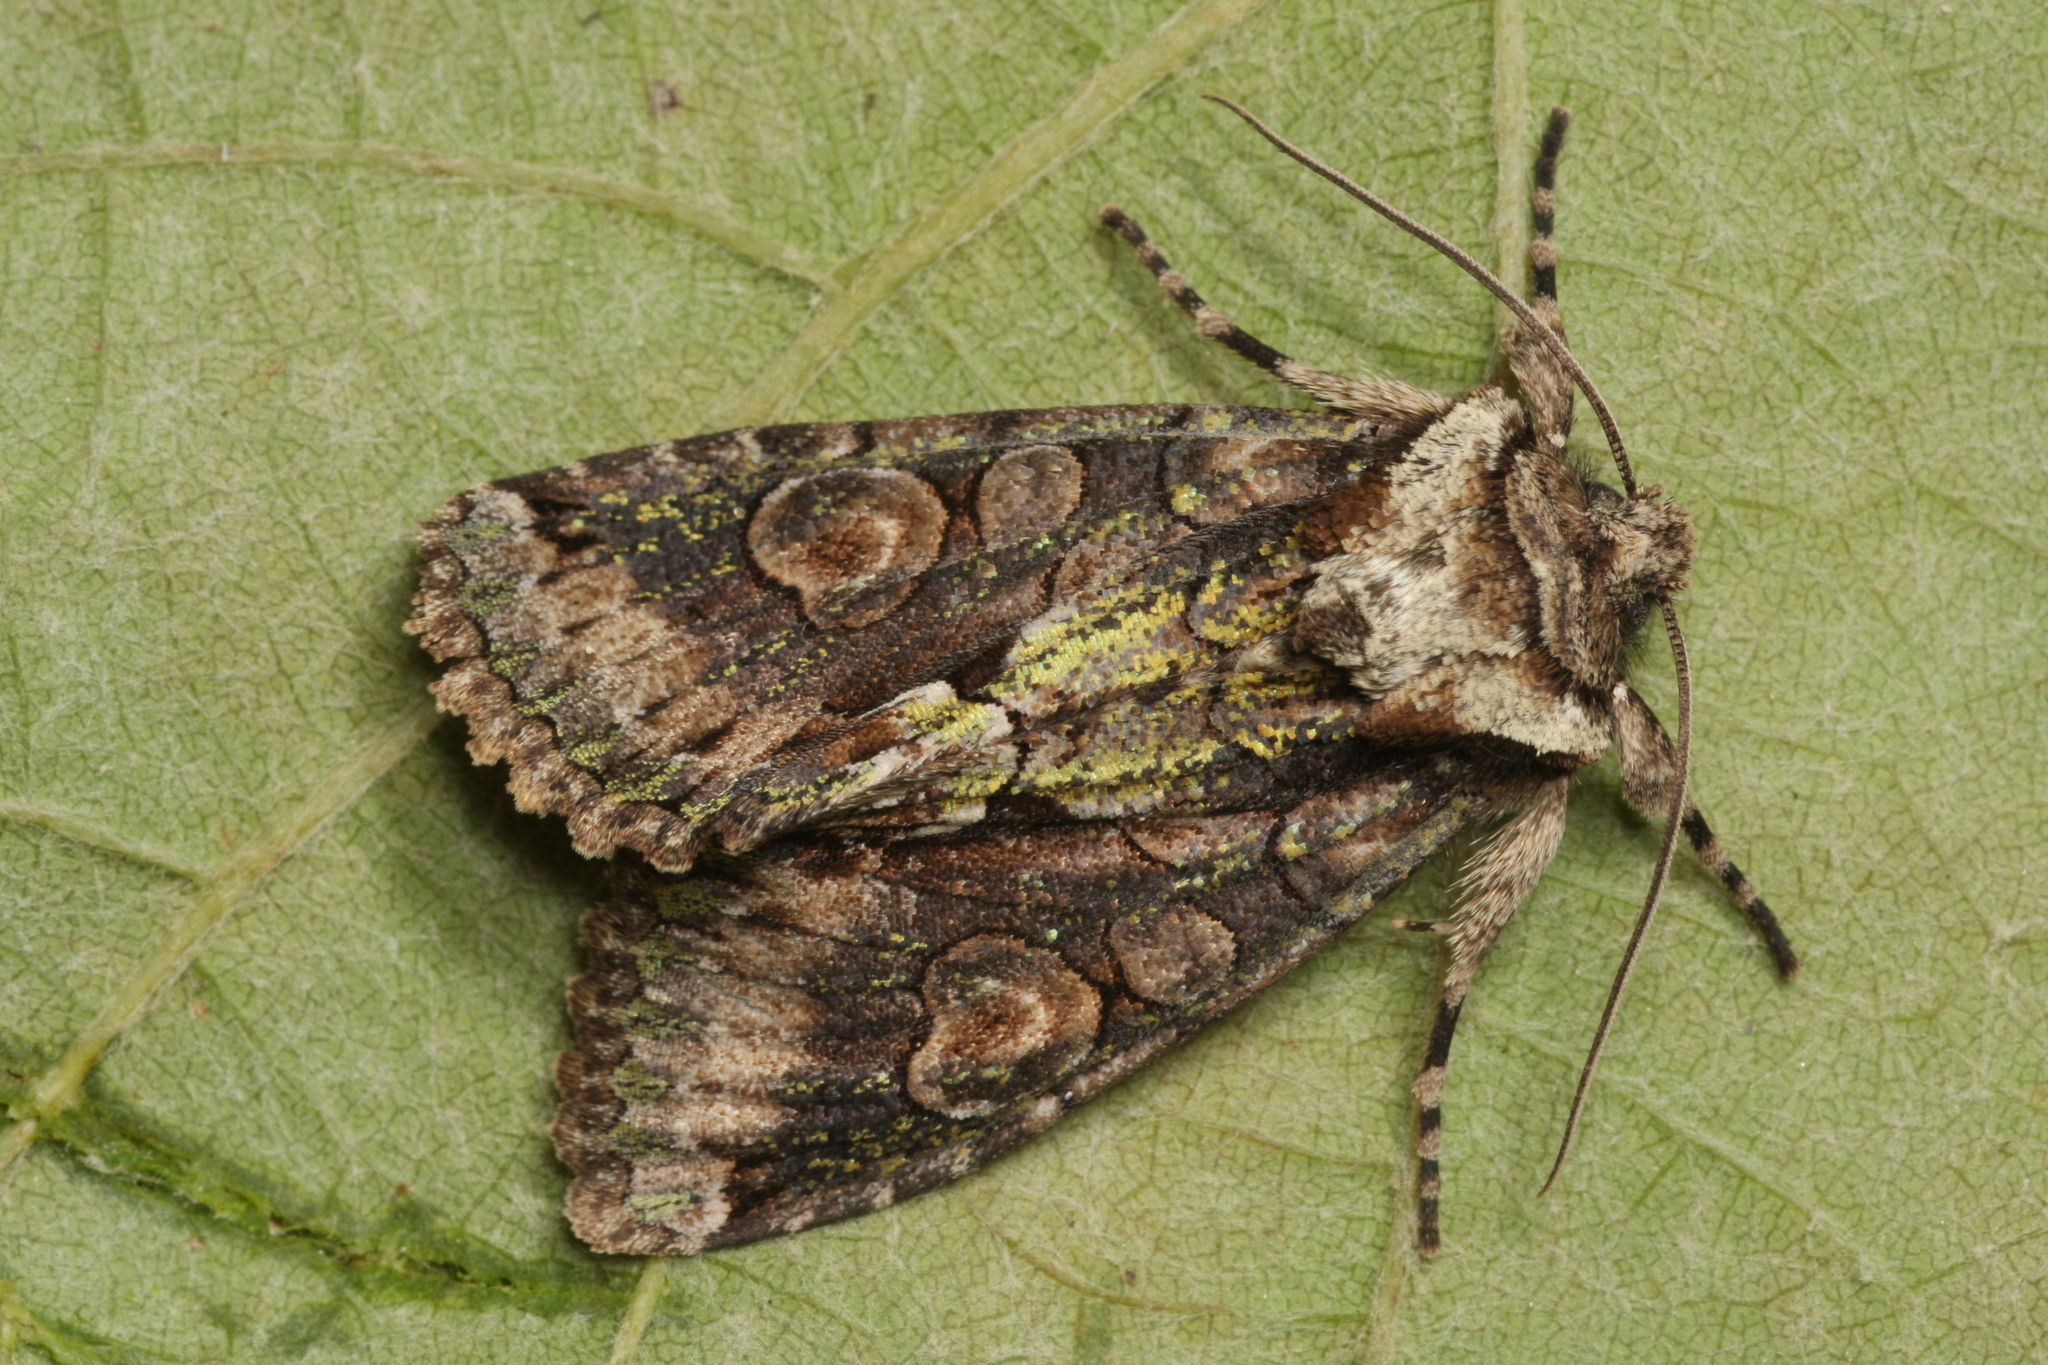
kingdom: Animalia
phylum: Arthropoda
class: Insecta
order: Lepidoptera
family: Noctuidae
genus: Allophyes
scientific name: Allophyes oxyacanthae
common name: Green-brindled crescent
